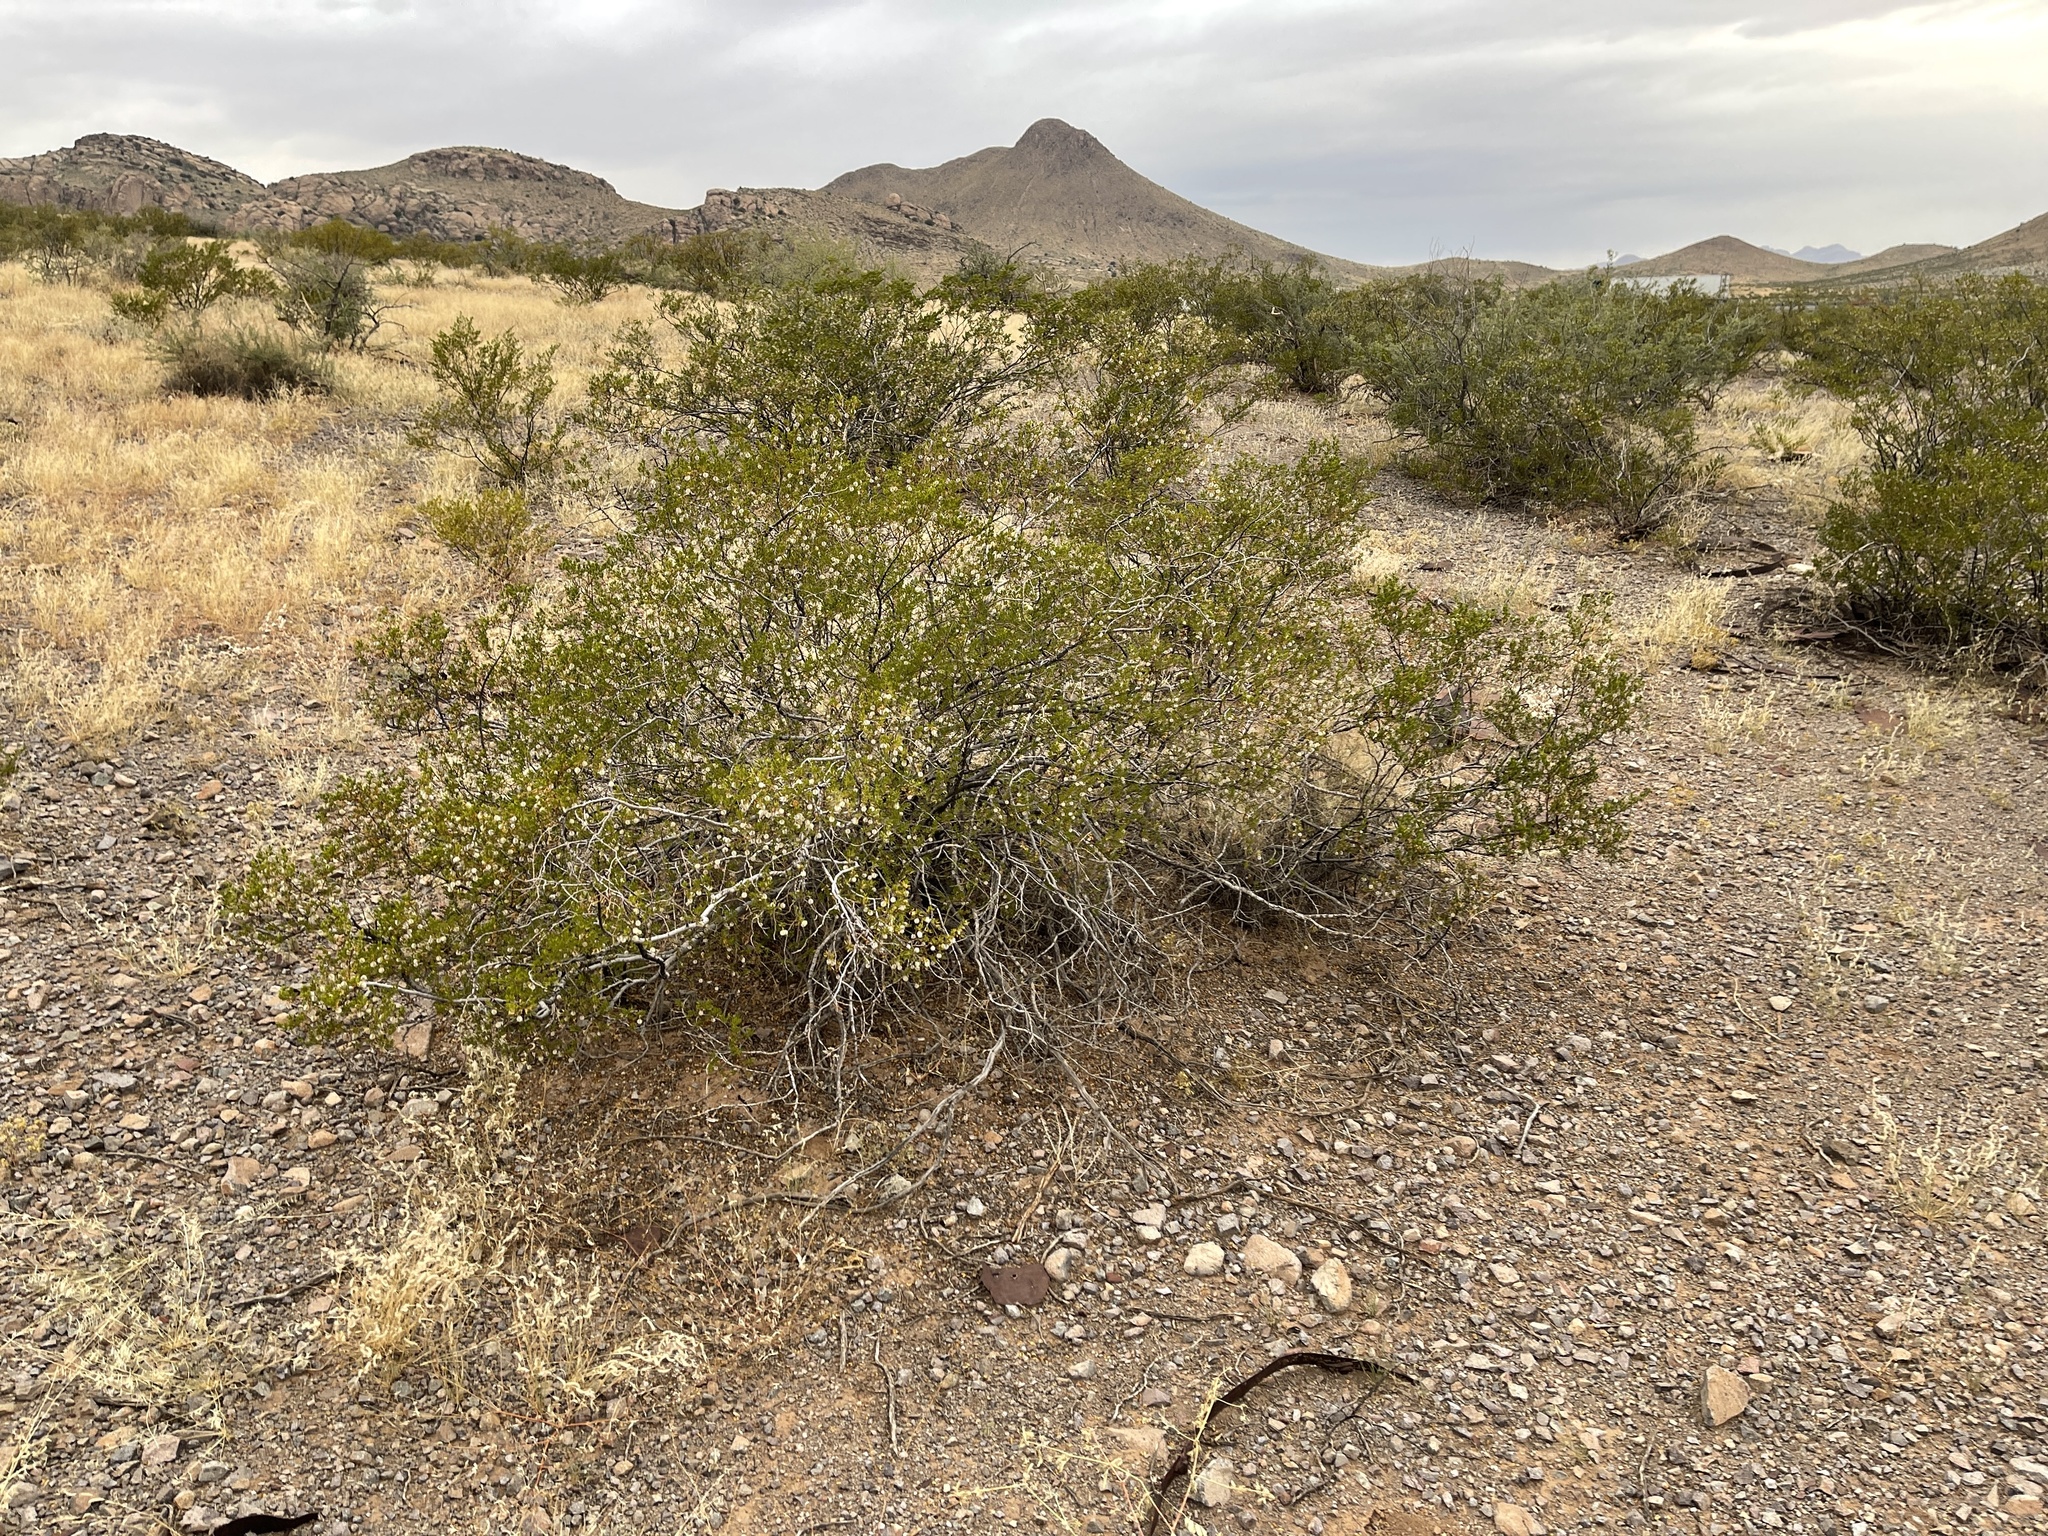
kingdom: Plantae
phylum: Tracheophyta
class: Magnoliopsida
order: Zygophyllales
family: Zygophyllaceae
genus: Larrea
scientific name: Larrea tridentata
